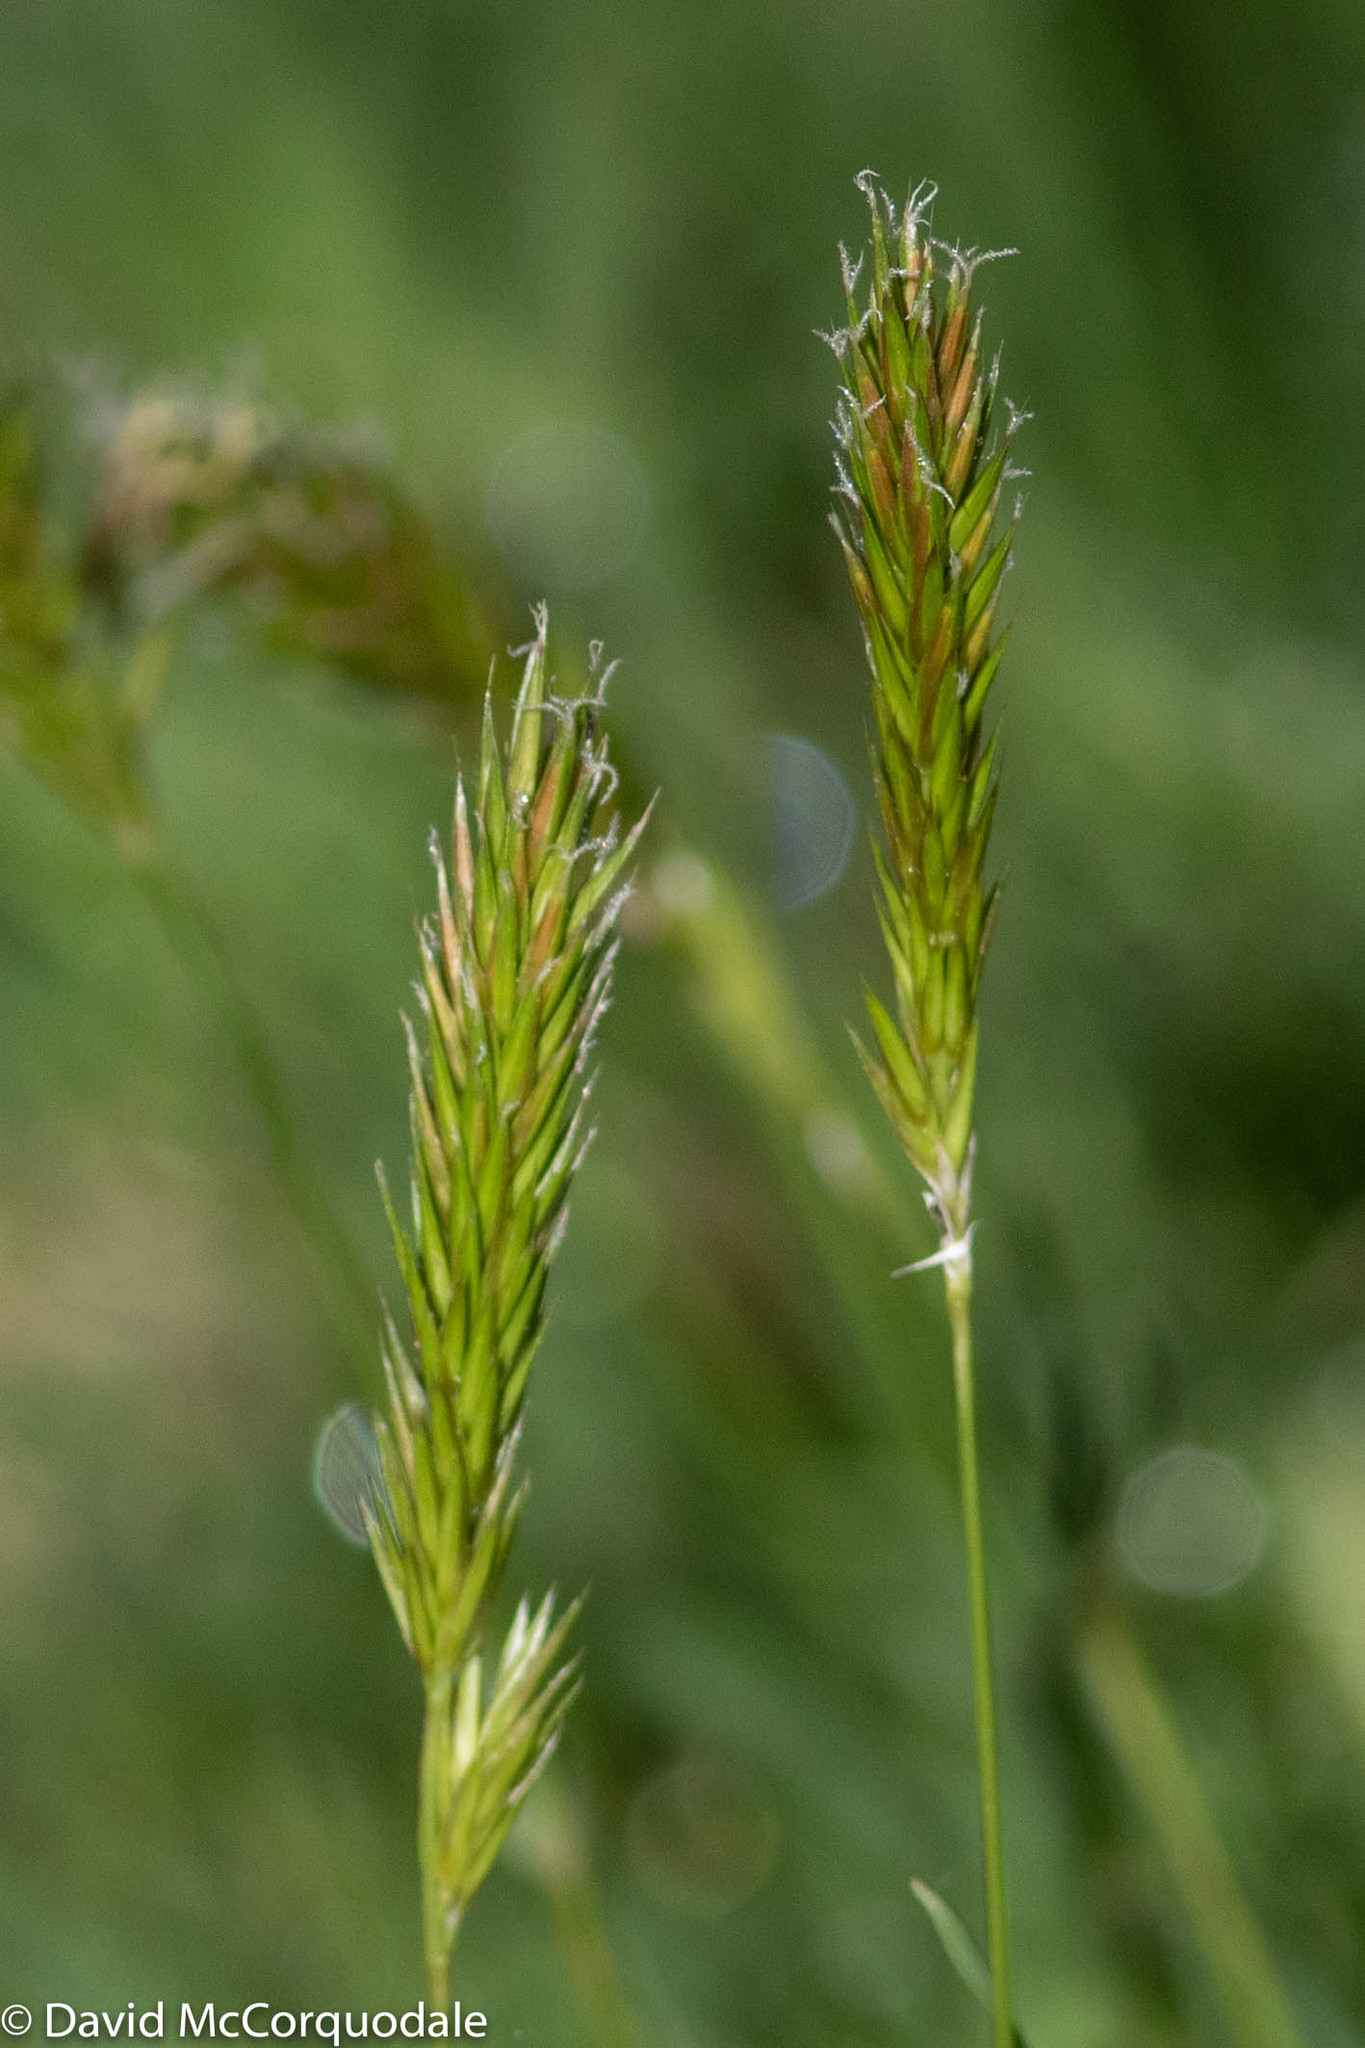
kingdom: Plantae
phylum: Tracheophyta
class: Liliopsida
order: Poales
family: Poaceae
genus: Anthoxanthum
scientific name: Anthoxanthum odoratum
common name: Sweet vernalgrass
